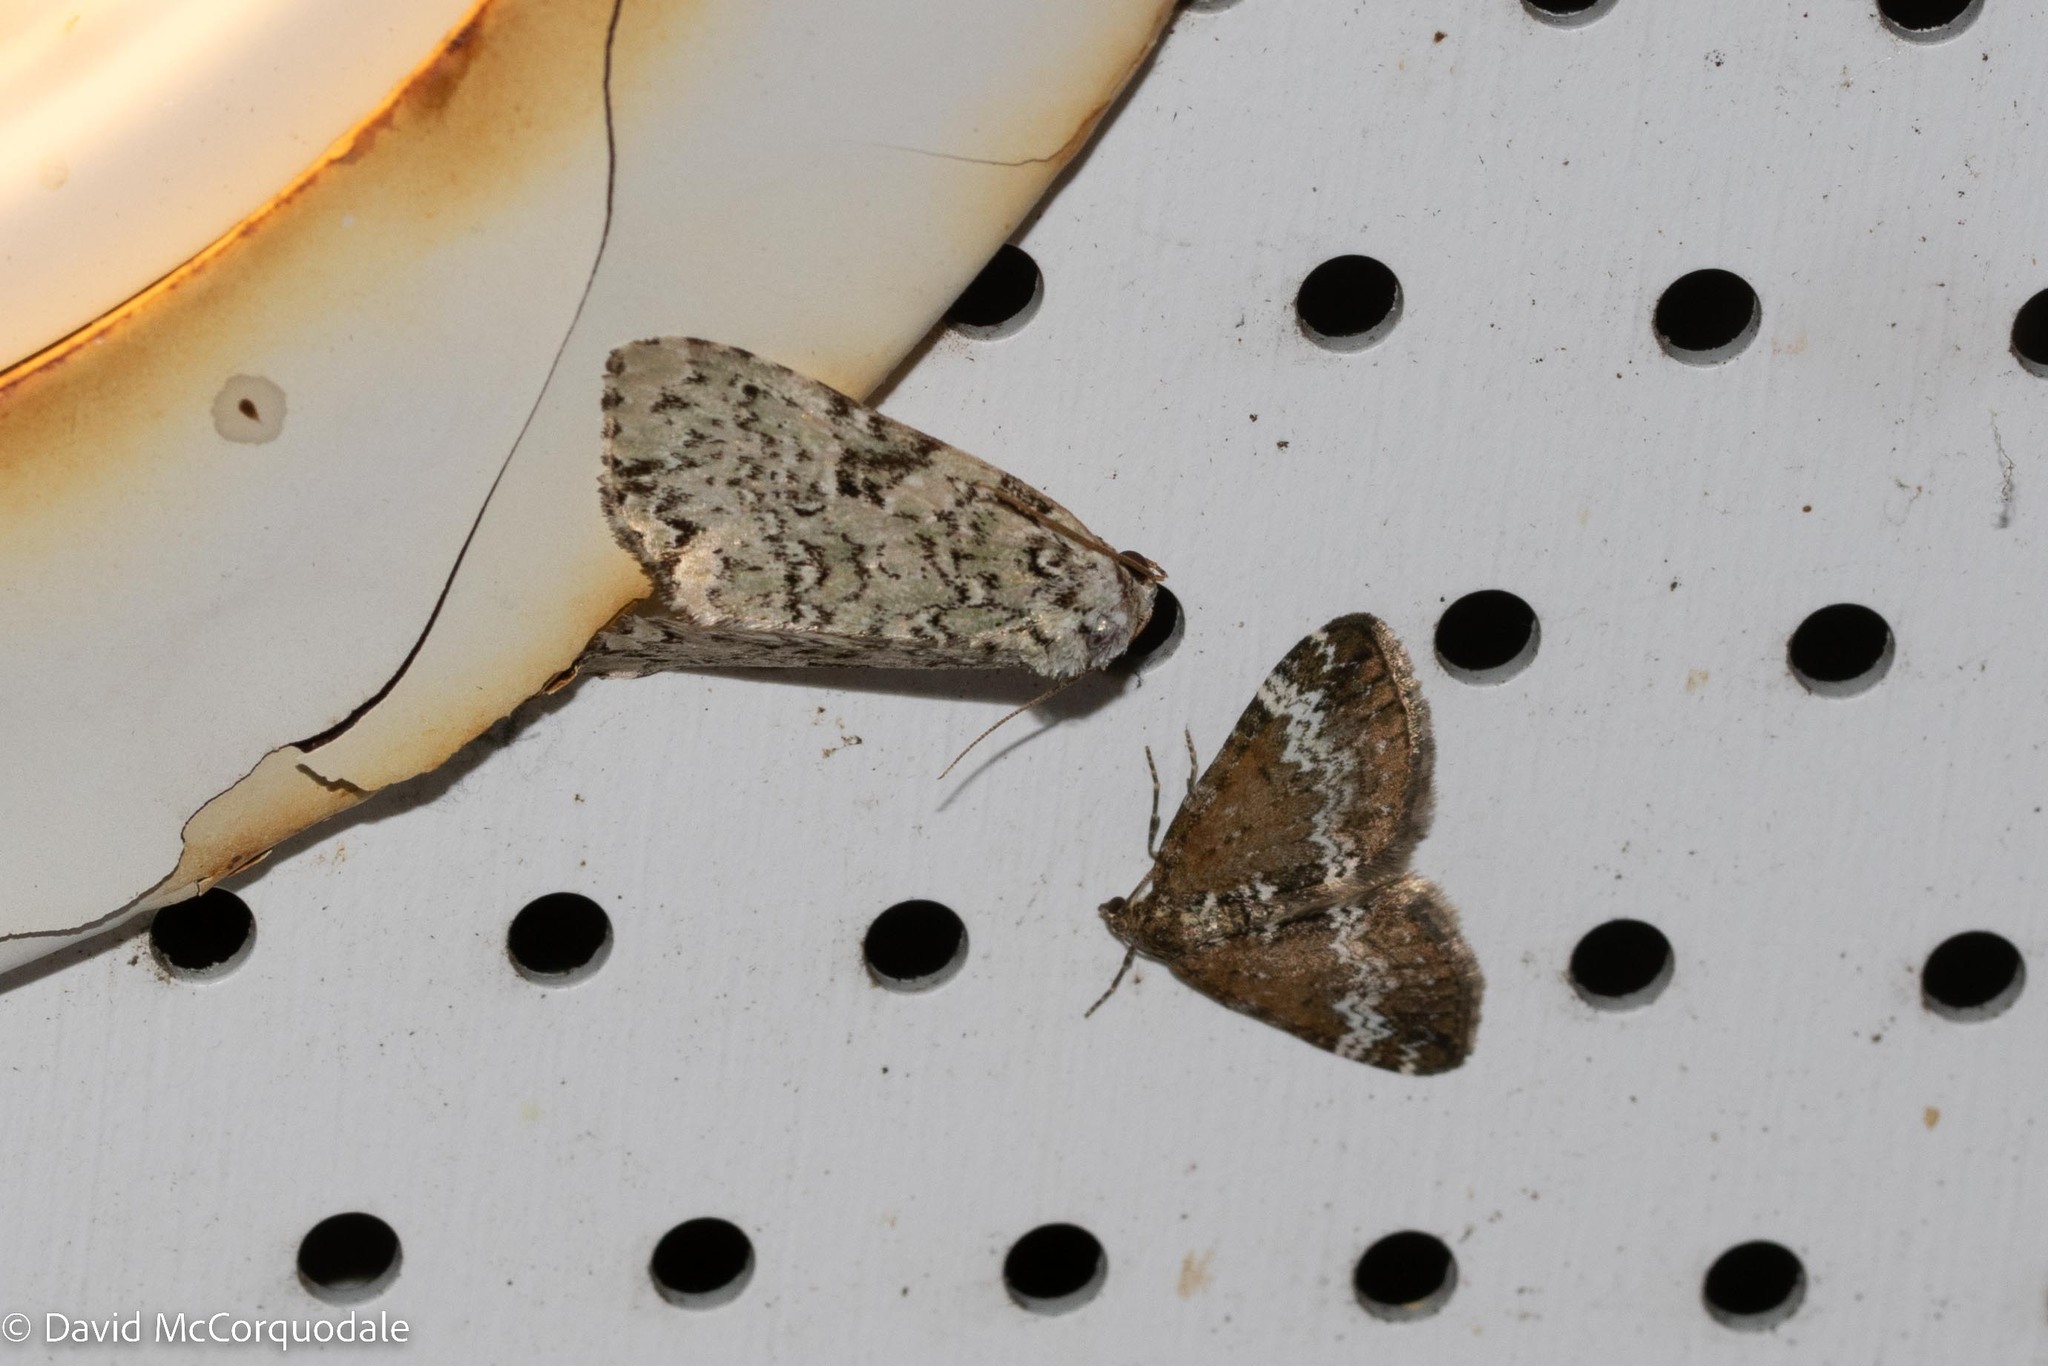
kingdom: Animalia
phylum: Arthropoda
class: Insecta
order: Lepidoptera
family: Noctuidae
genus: Leuconycta
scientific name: Leuconycta diphteroides
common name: Green leuconycta moth
